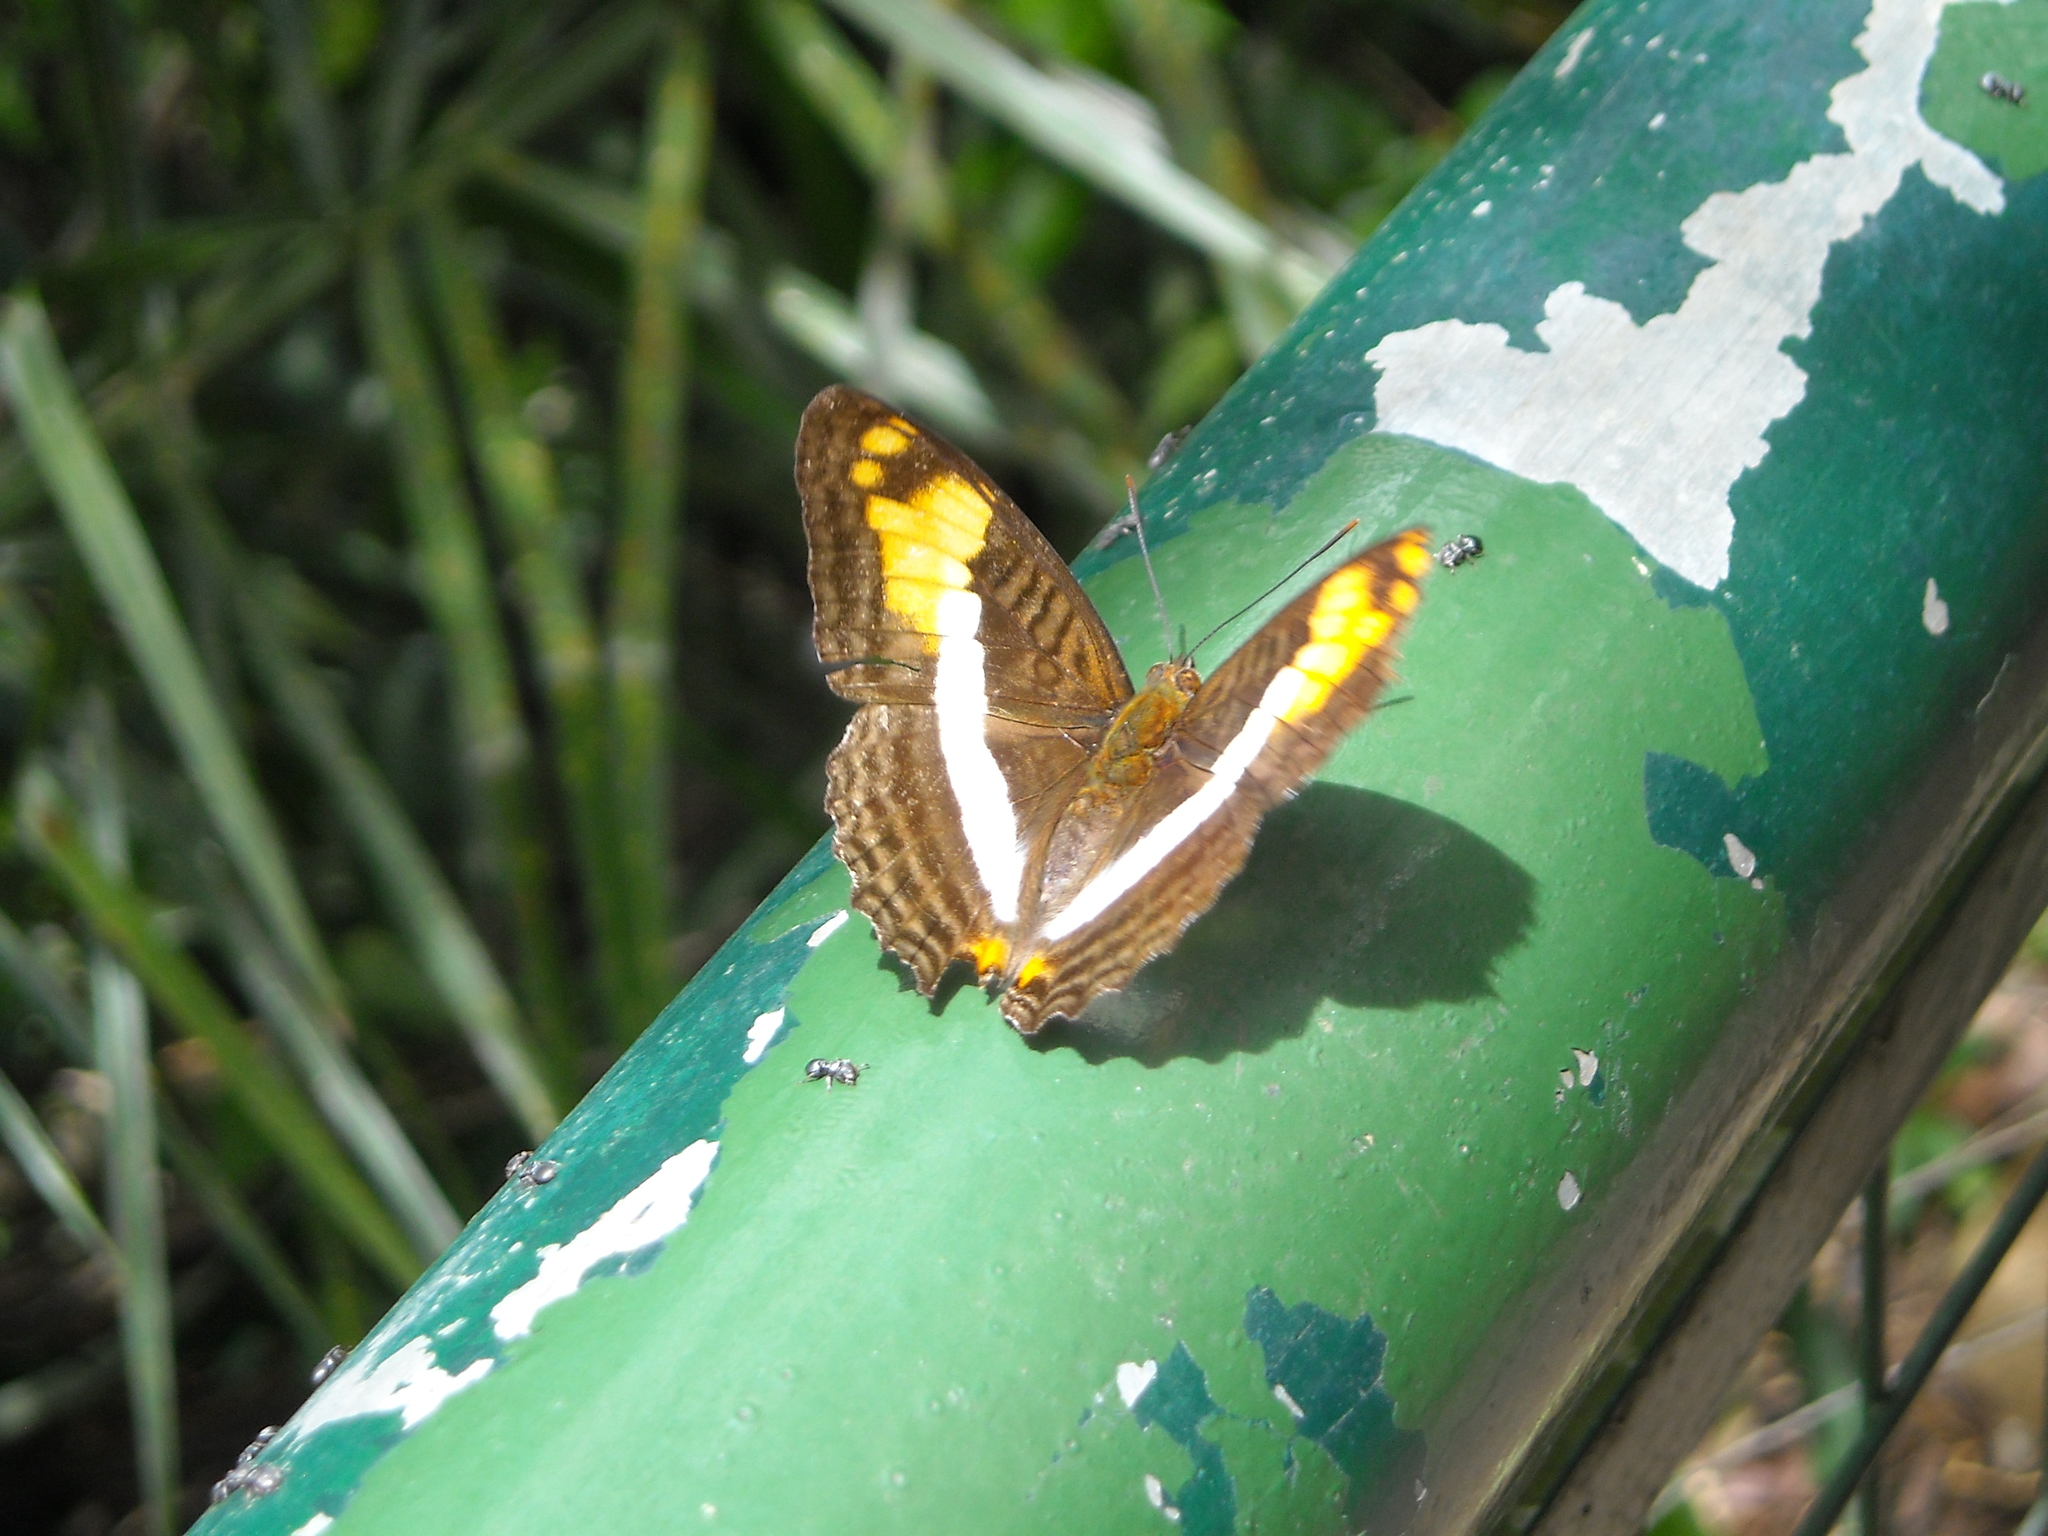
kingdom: Animalia
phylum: Arthropoda
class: Insecta
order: Lepidoptera
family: Nymphalidae
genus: Limenitis
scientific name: Limenitis malea
